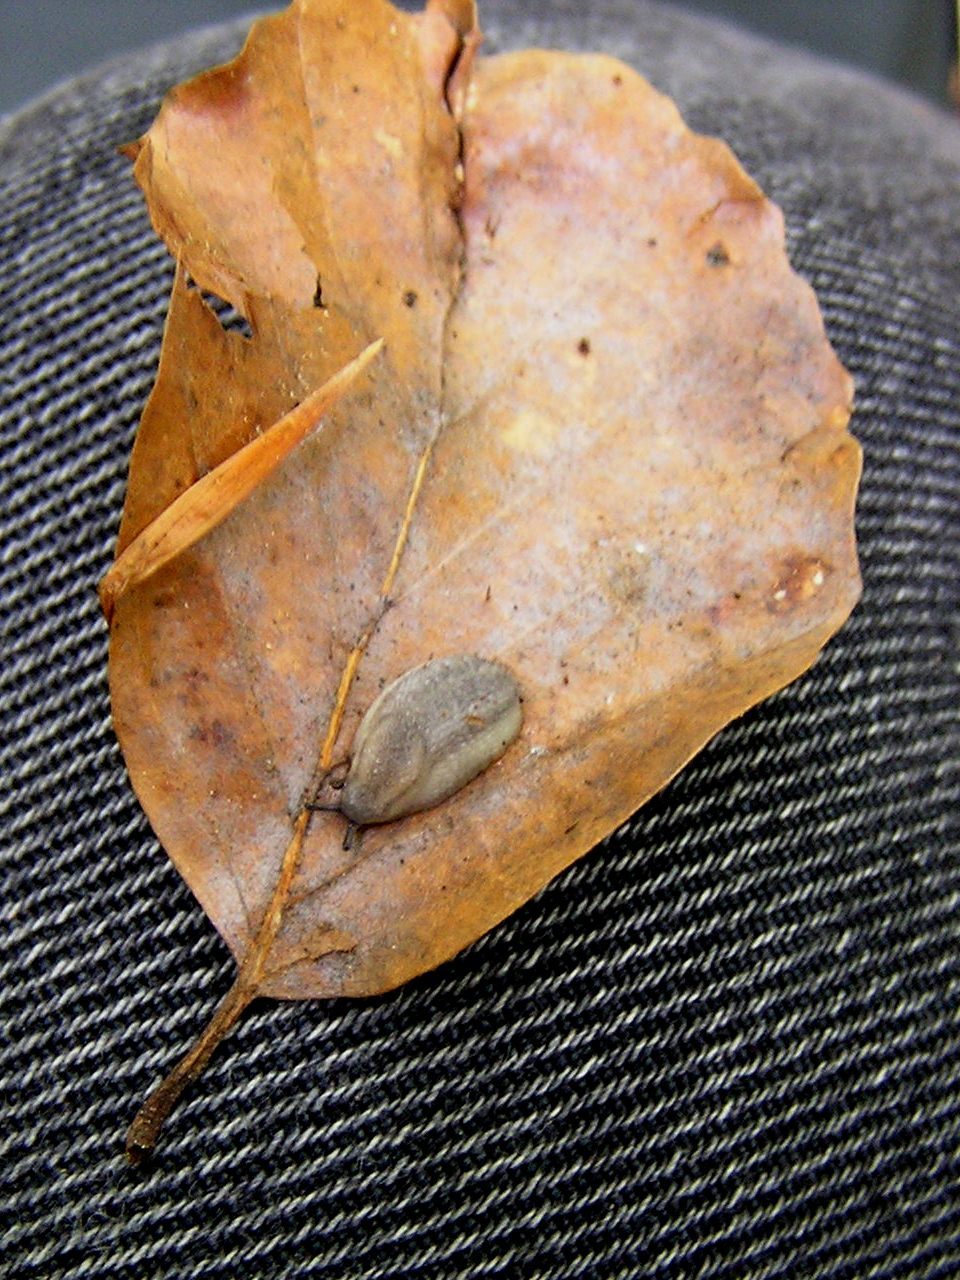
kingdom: Animalia
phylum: Mollusca
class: Gastropoda
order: Stylommatophora
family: Arionidae
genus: Arion
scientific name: Arion fasciatus
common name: Orange-banded arion
